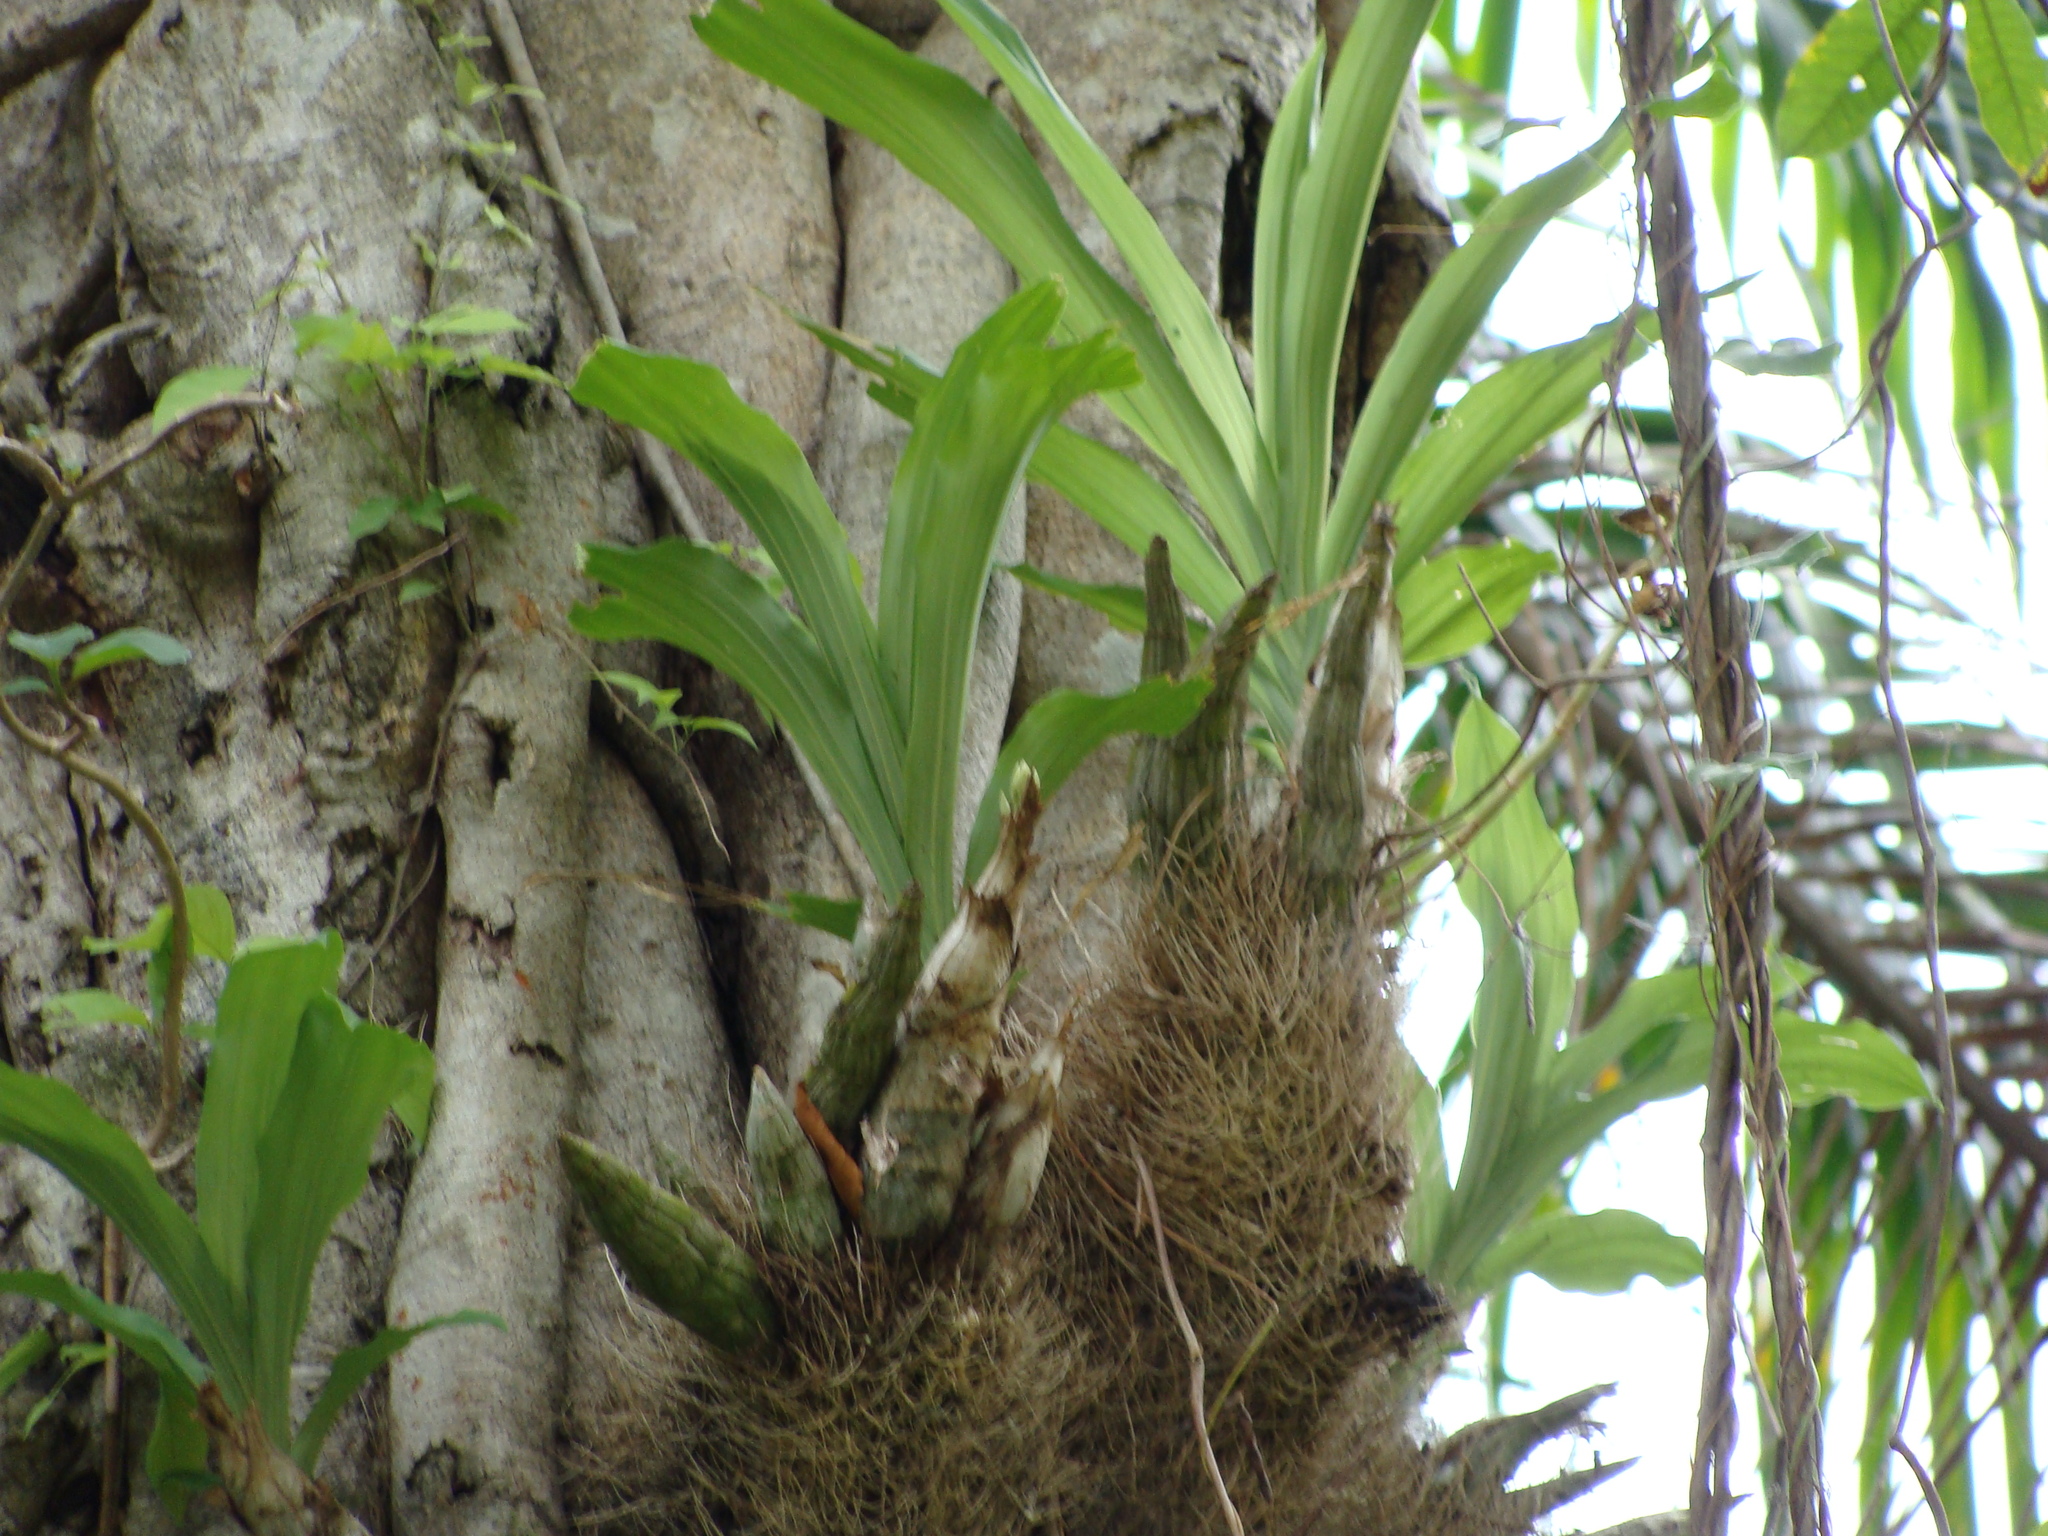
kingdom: Plantae
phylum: Tracheophyta
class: Liliopsida
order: Asparagales
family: Orchidaceae
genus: Catasetum
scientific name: Catasetum integerrimum
